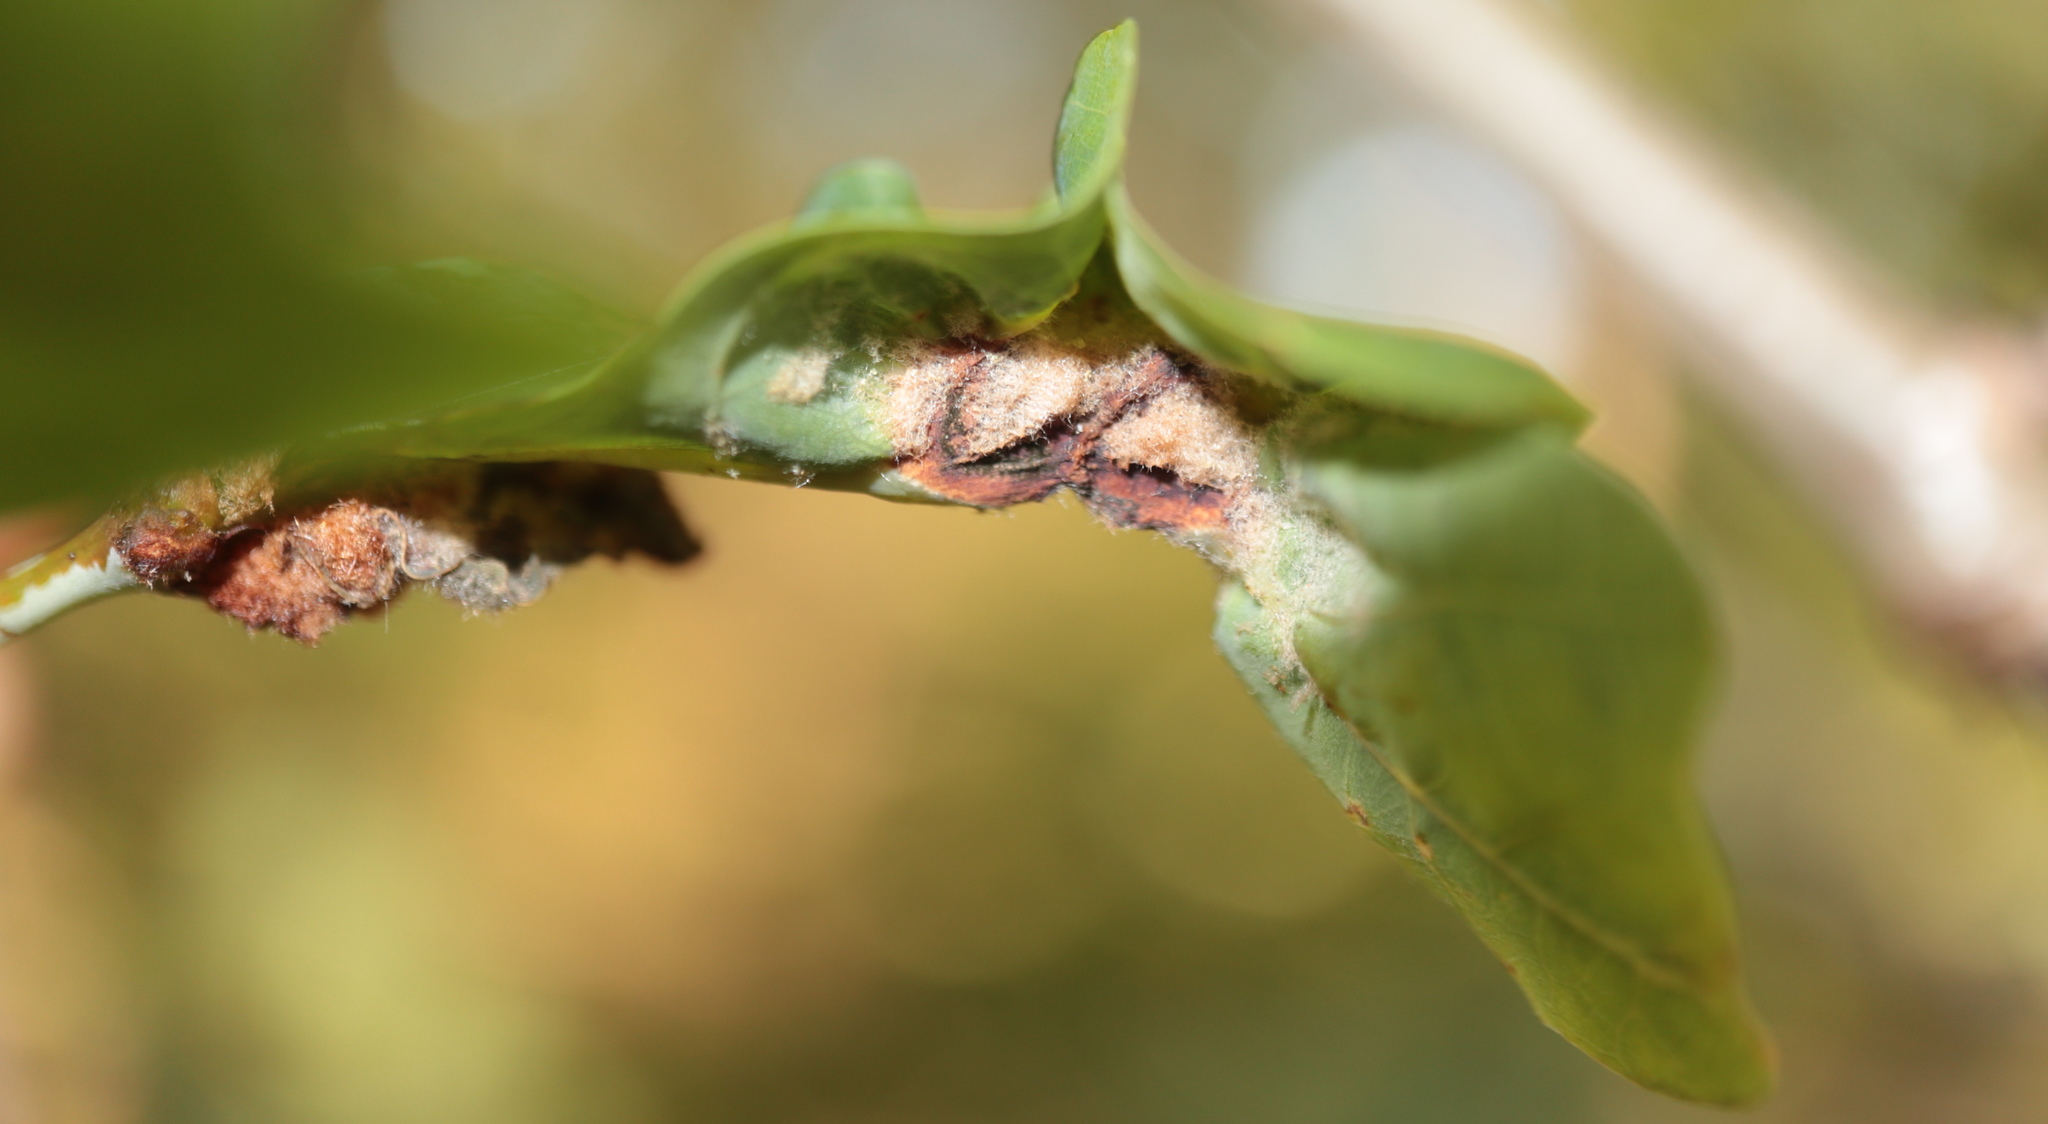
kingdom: Animalia
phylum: Arthropoda
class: Insecta
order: Diptera
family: Cecidomyiidae
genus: Macrodiplosis
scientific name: Macrodiplosis niveipila
